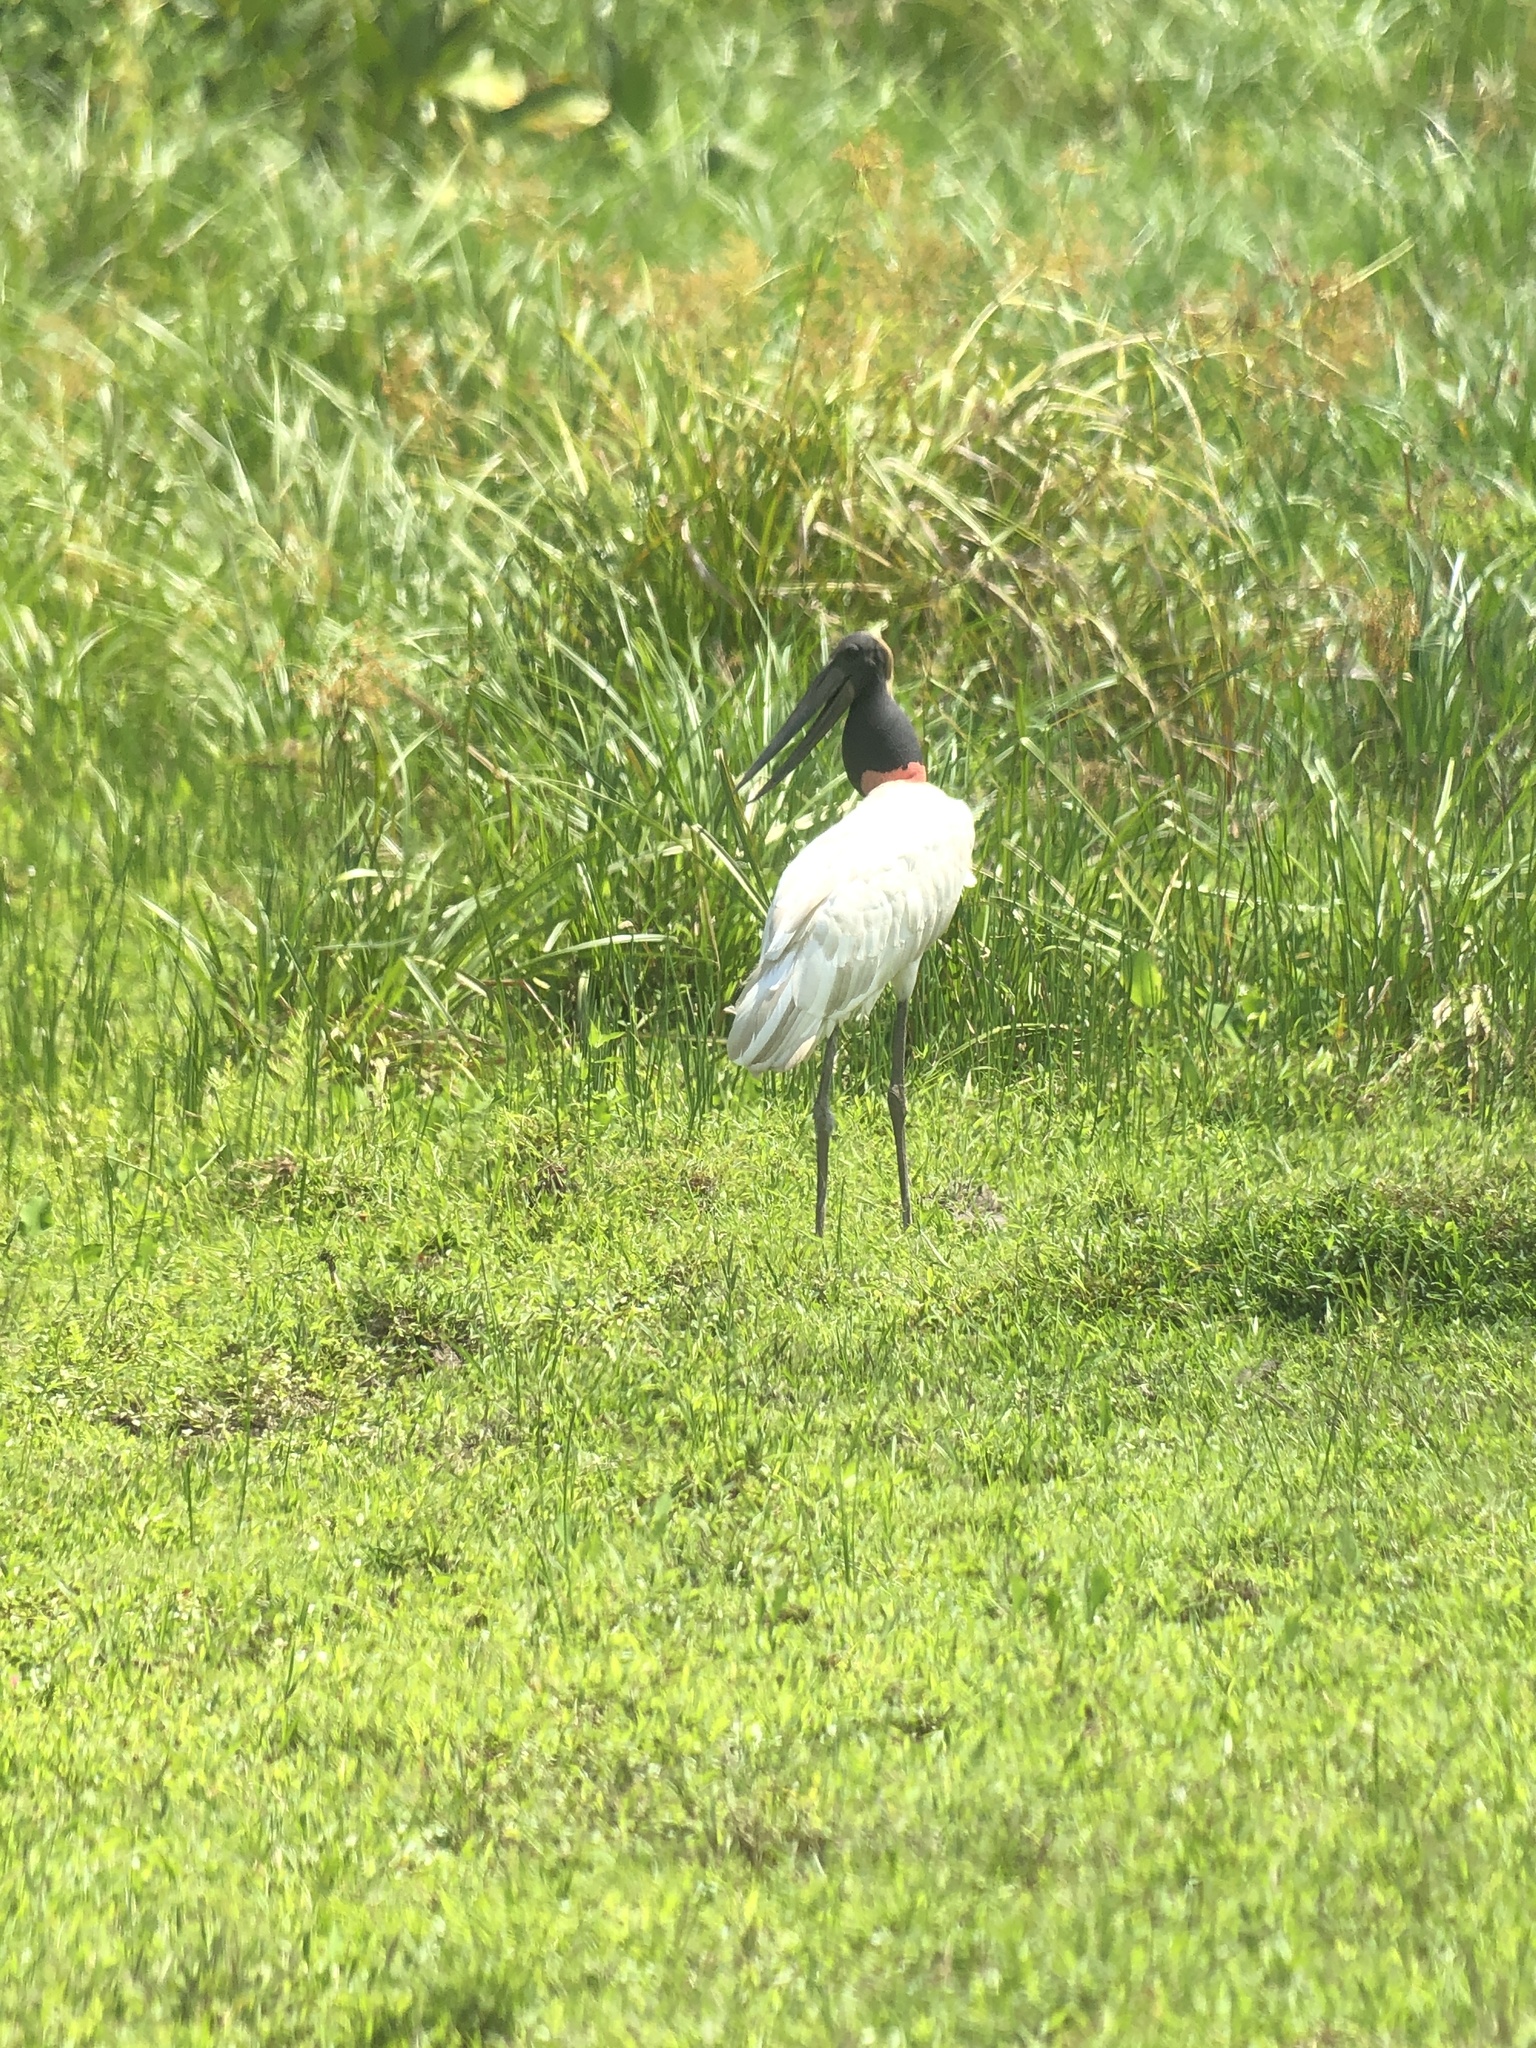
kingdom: Animalia
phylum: Chordata
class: Aves
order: Ciconiiformes
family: Ciconiidae
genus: Jabiru
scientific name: Jabiru mycteria
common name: Jabiru
